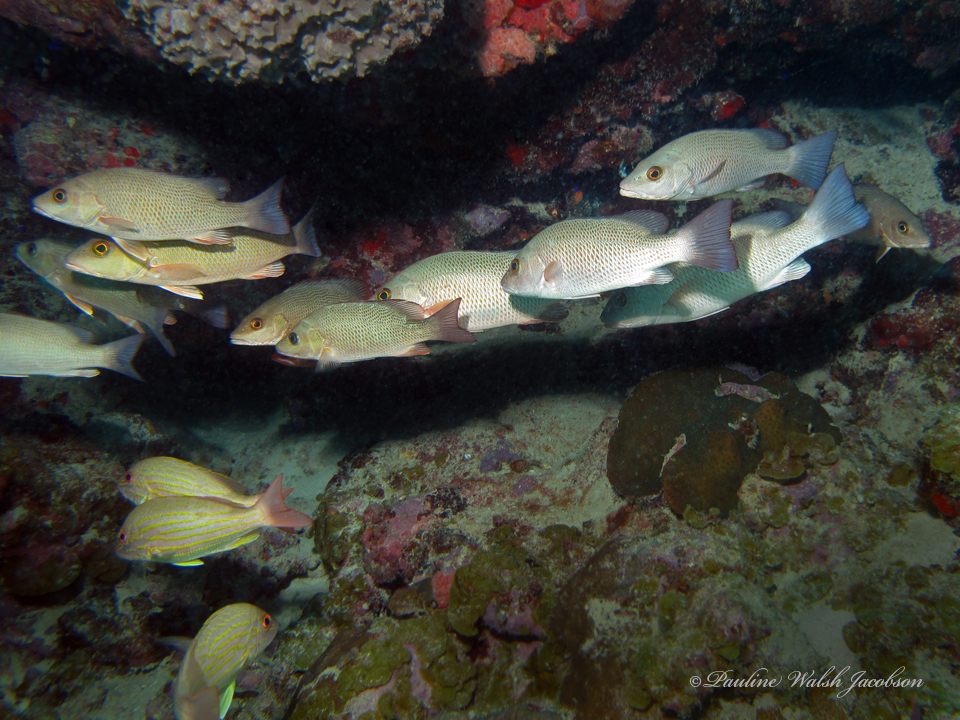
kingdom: Animalia
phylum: Chordata
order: Perciformes
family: Lutjanidae
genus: Lutjanus
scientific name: Lutjanus griseus
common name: Gray snapper
